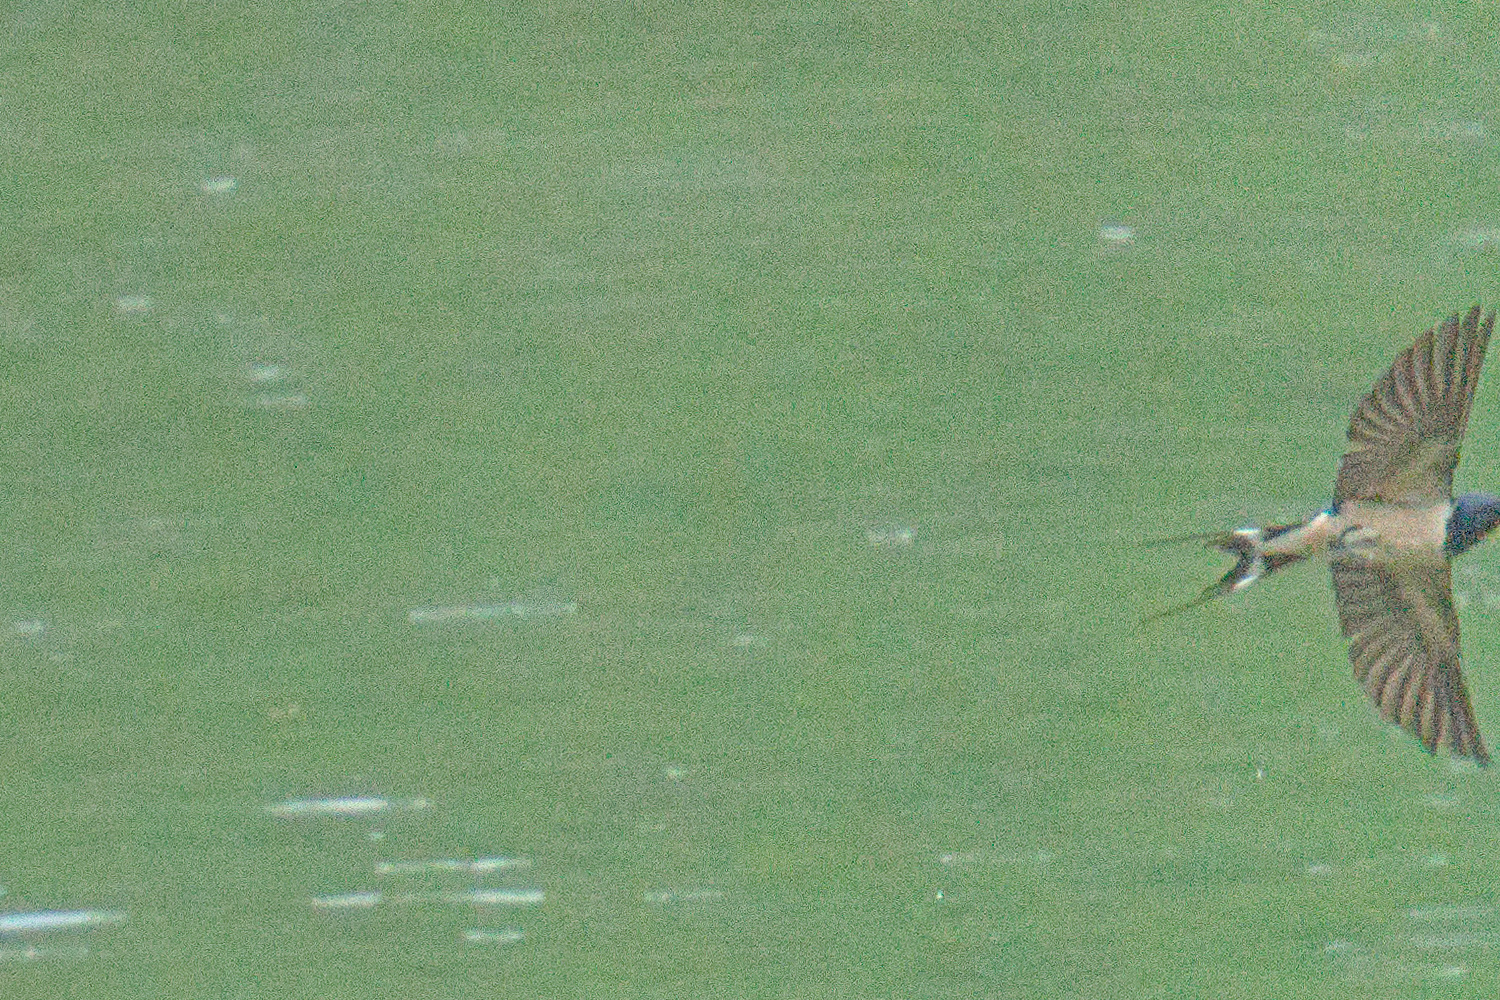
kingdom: Animalia
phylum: Chordata
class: Aves
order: Passeriformes
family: Hirundinidae
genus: Hirundo
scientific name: Hirundo rustica
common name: Barn swallow
